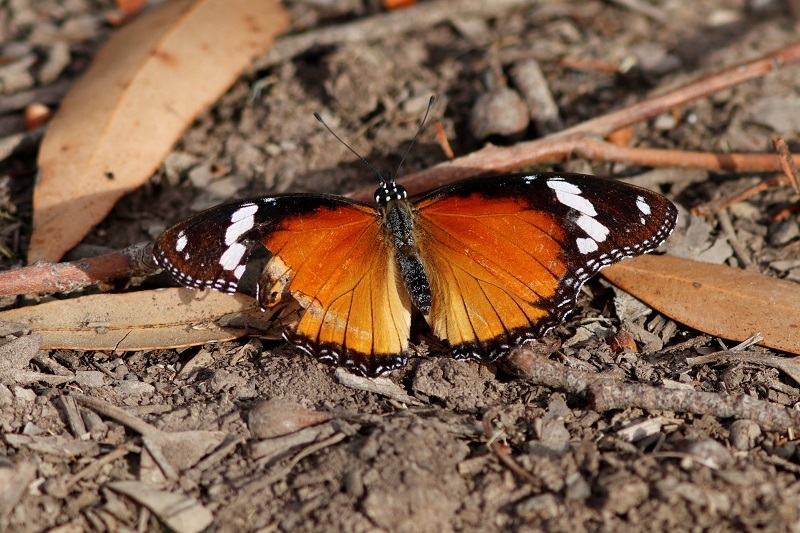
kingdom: Animalia
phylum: Arthropoda
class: Insecta
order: Lepidoptera
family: Nymphalidae
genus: Hypolimnas
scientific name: Hypolimnas misippus
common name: False plain tiger
